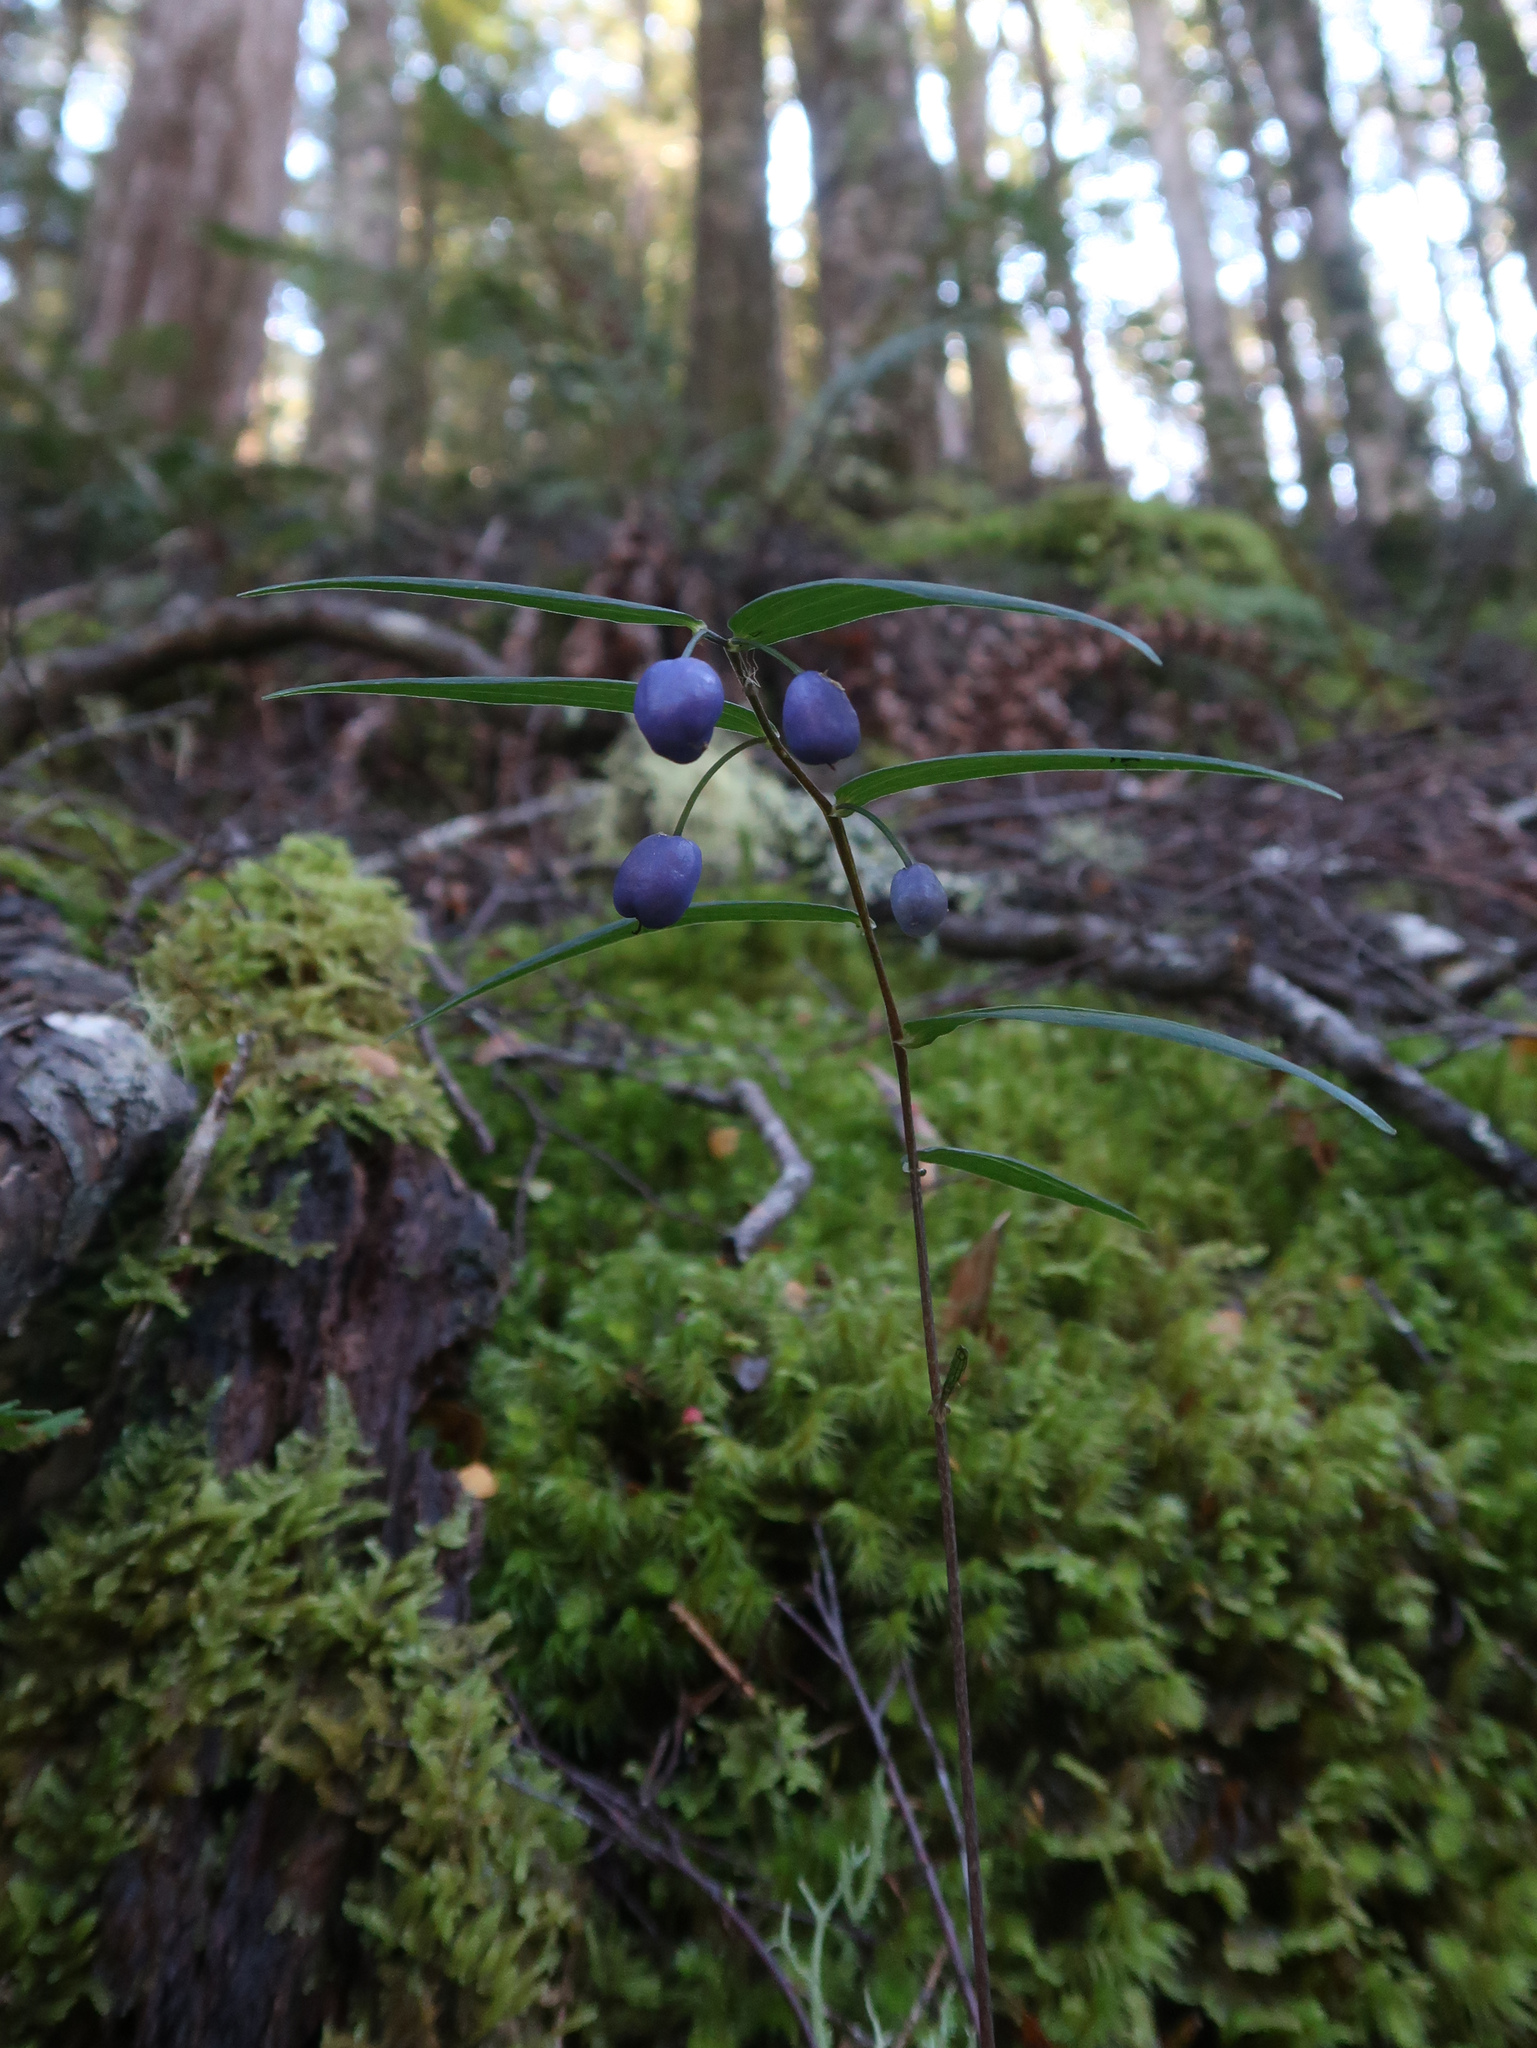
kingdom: Plantae
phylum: Tracheophyta
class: Liliopsida
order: Liliales
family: Alstroemeriaceae
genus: Drymophila
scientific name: Drymophila cyanocarpa
